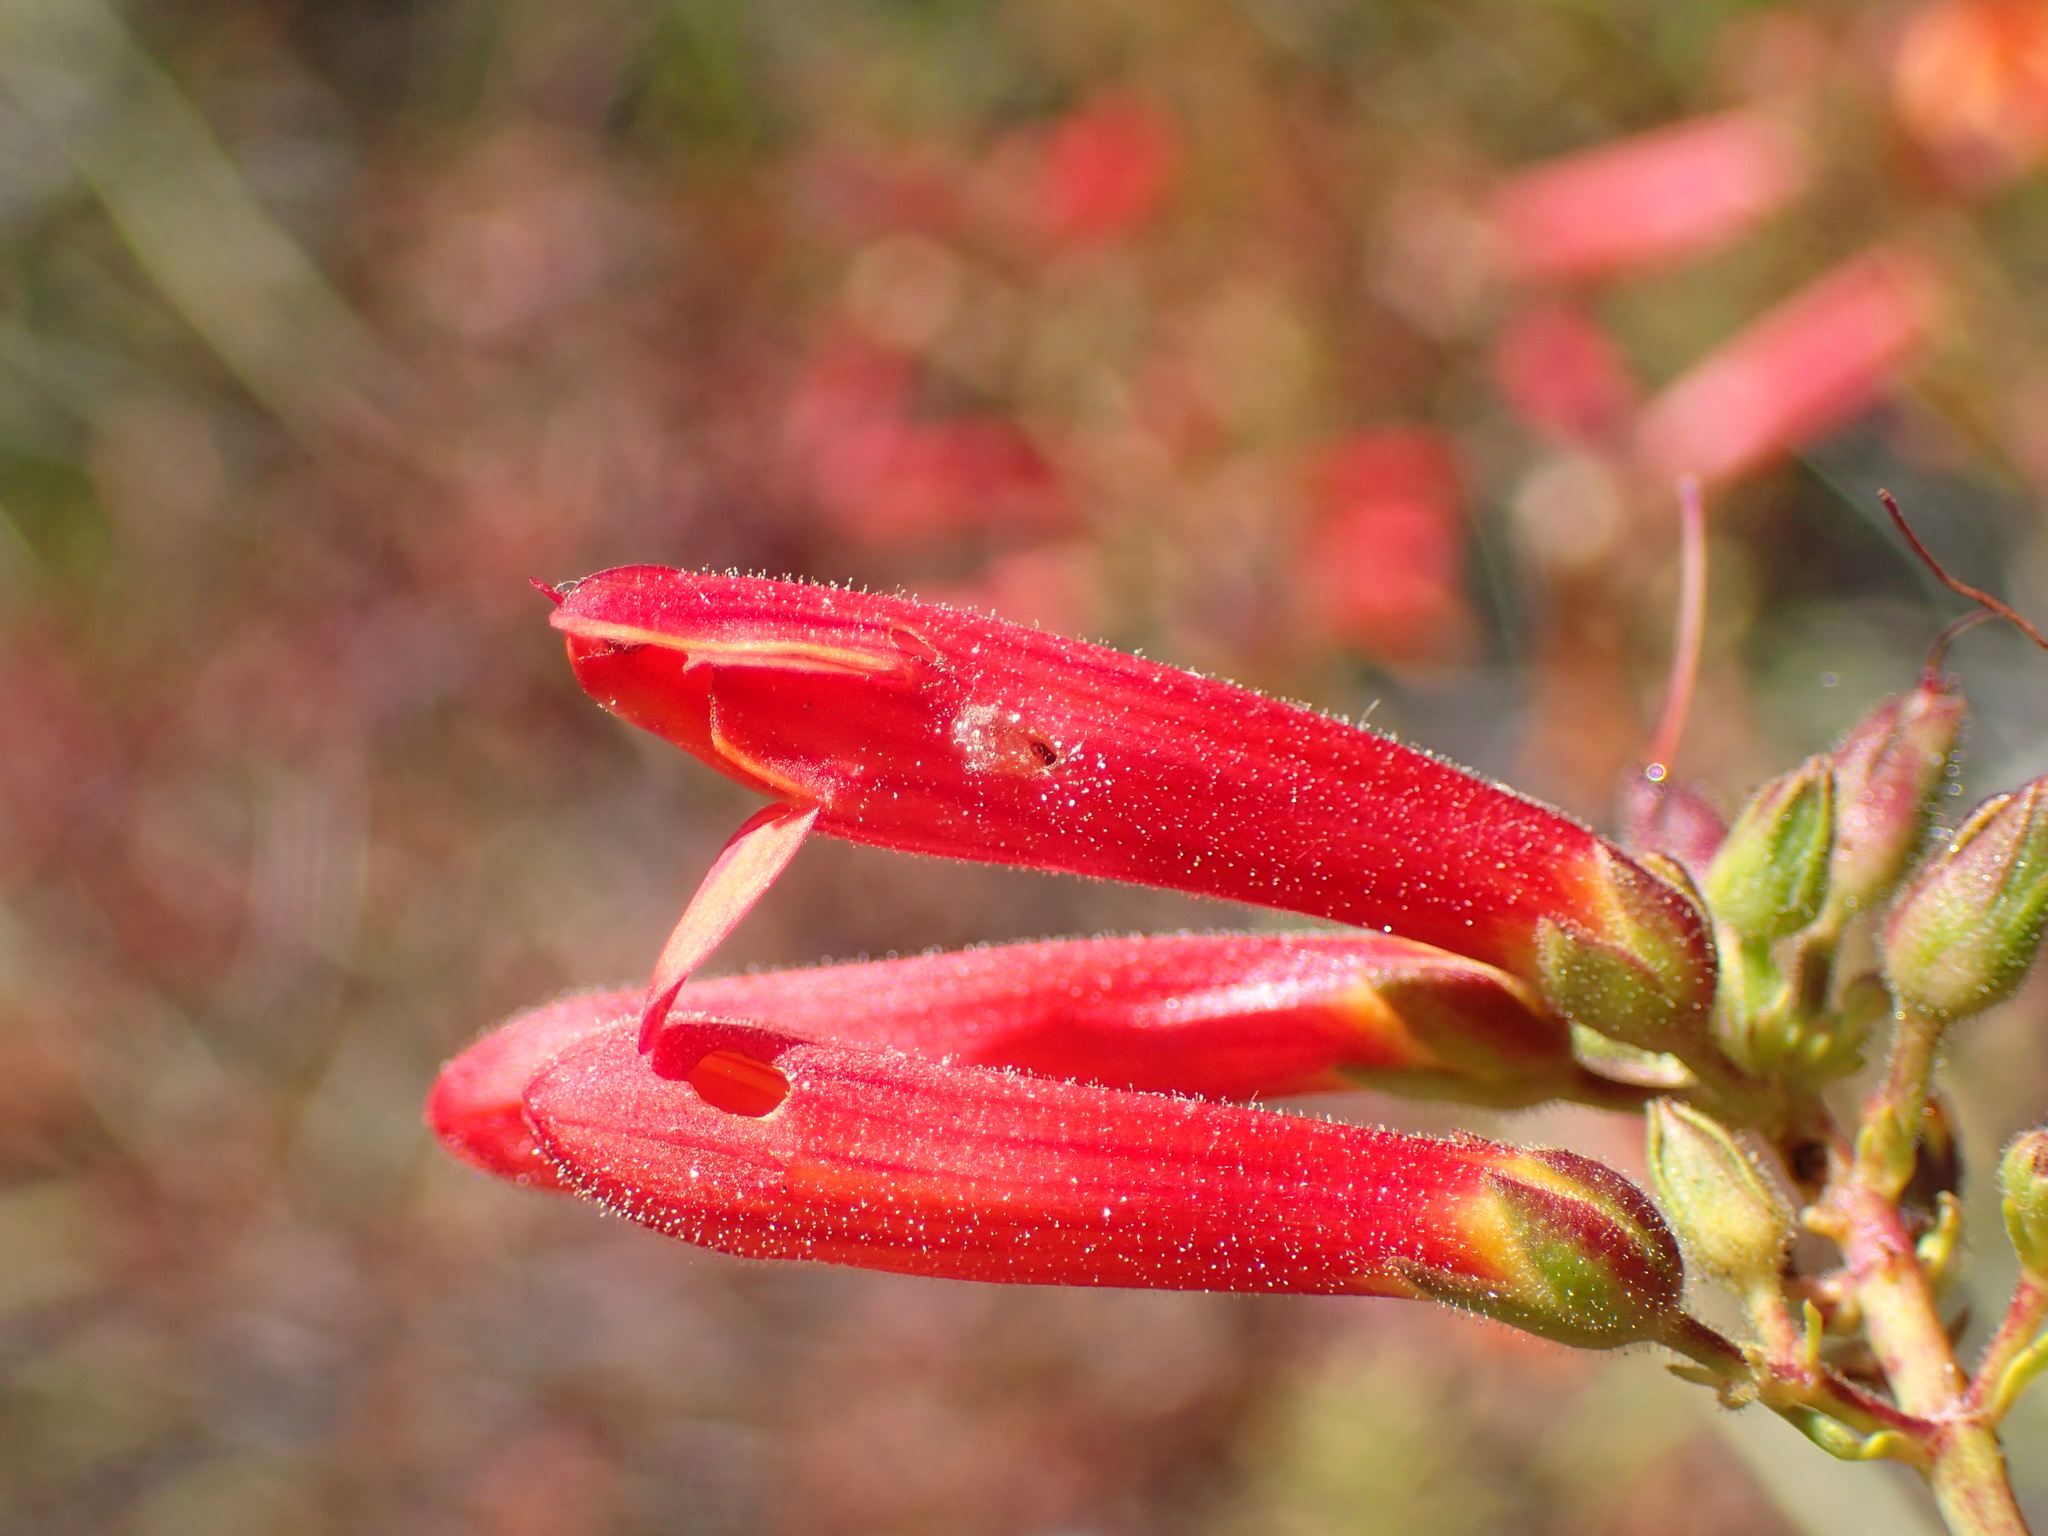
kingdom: Plantae
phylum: Tracheophyta
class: Magnoliopsida
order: Lamiales
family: Plantaginaceae
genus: Keckiella
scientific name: Keckiella ternata
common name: Scarlet keckiella
